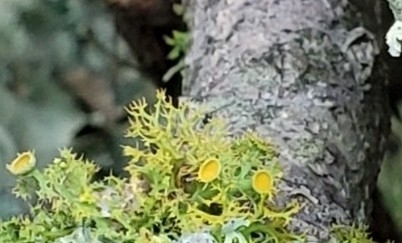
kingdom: Fungi
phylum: Ascomycota
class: Lecanoromycetes
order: Teloschistales
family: Teloschistaceae
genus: Niorma
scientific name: Niorma chrysophthalma
